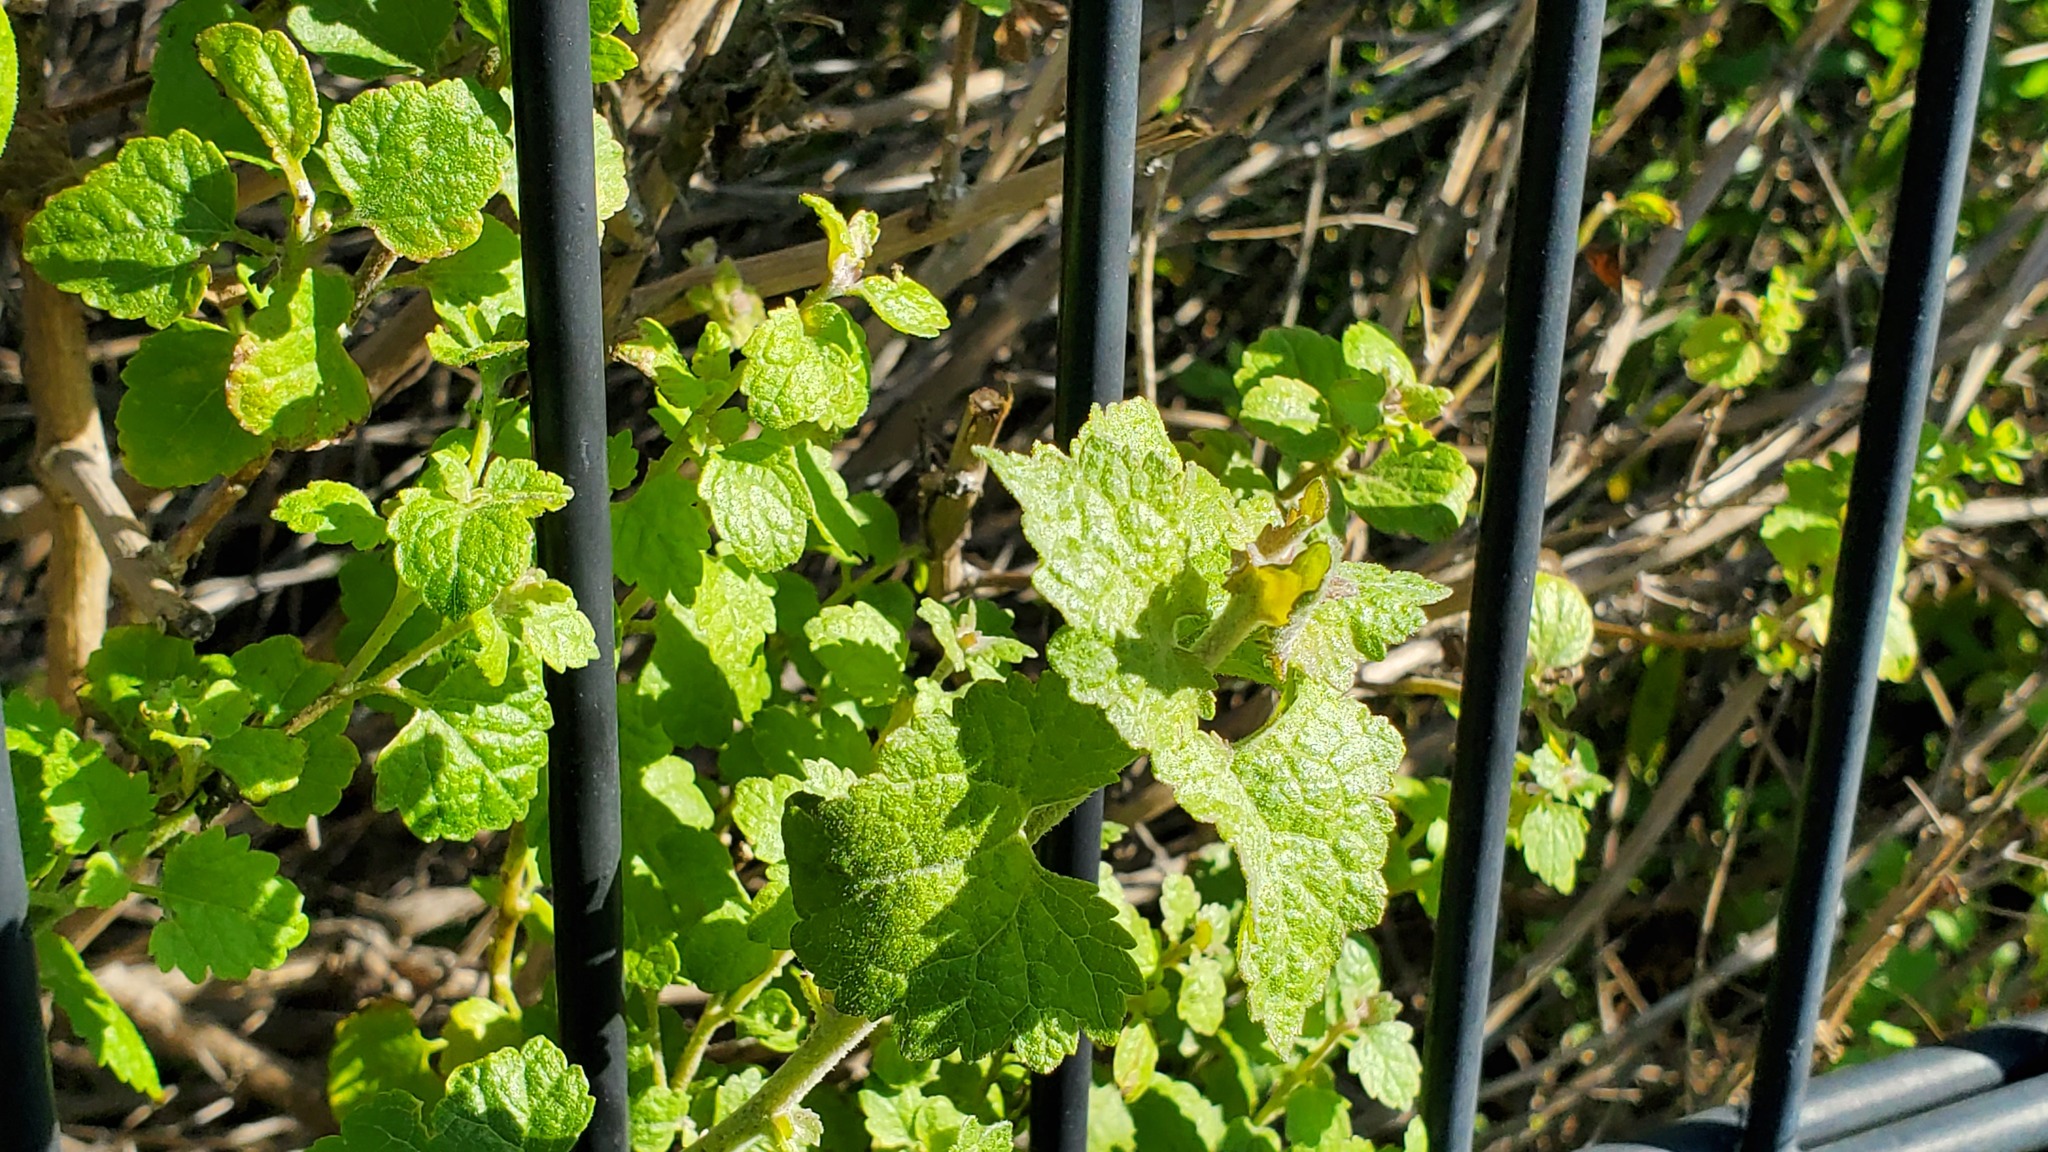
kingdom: Plantae
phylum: Tracheophyta
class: Magnoliopsida
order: Asterales
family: Asteraceae
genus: Brickellia
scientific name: Brickellia californica
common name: California brickellbush
